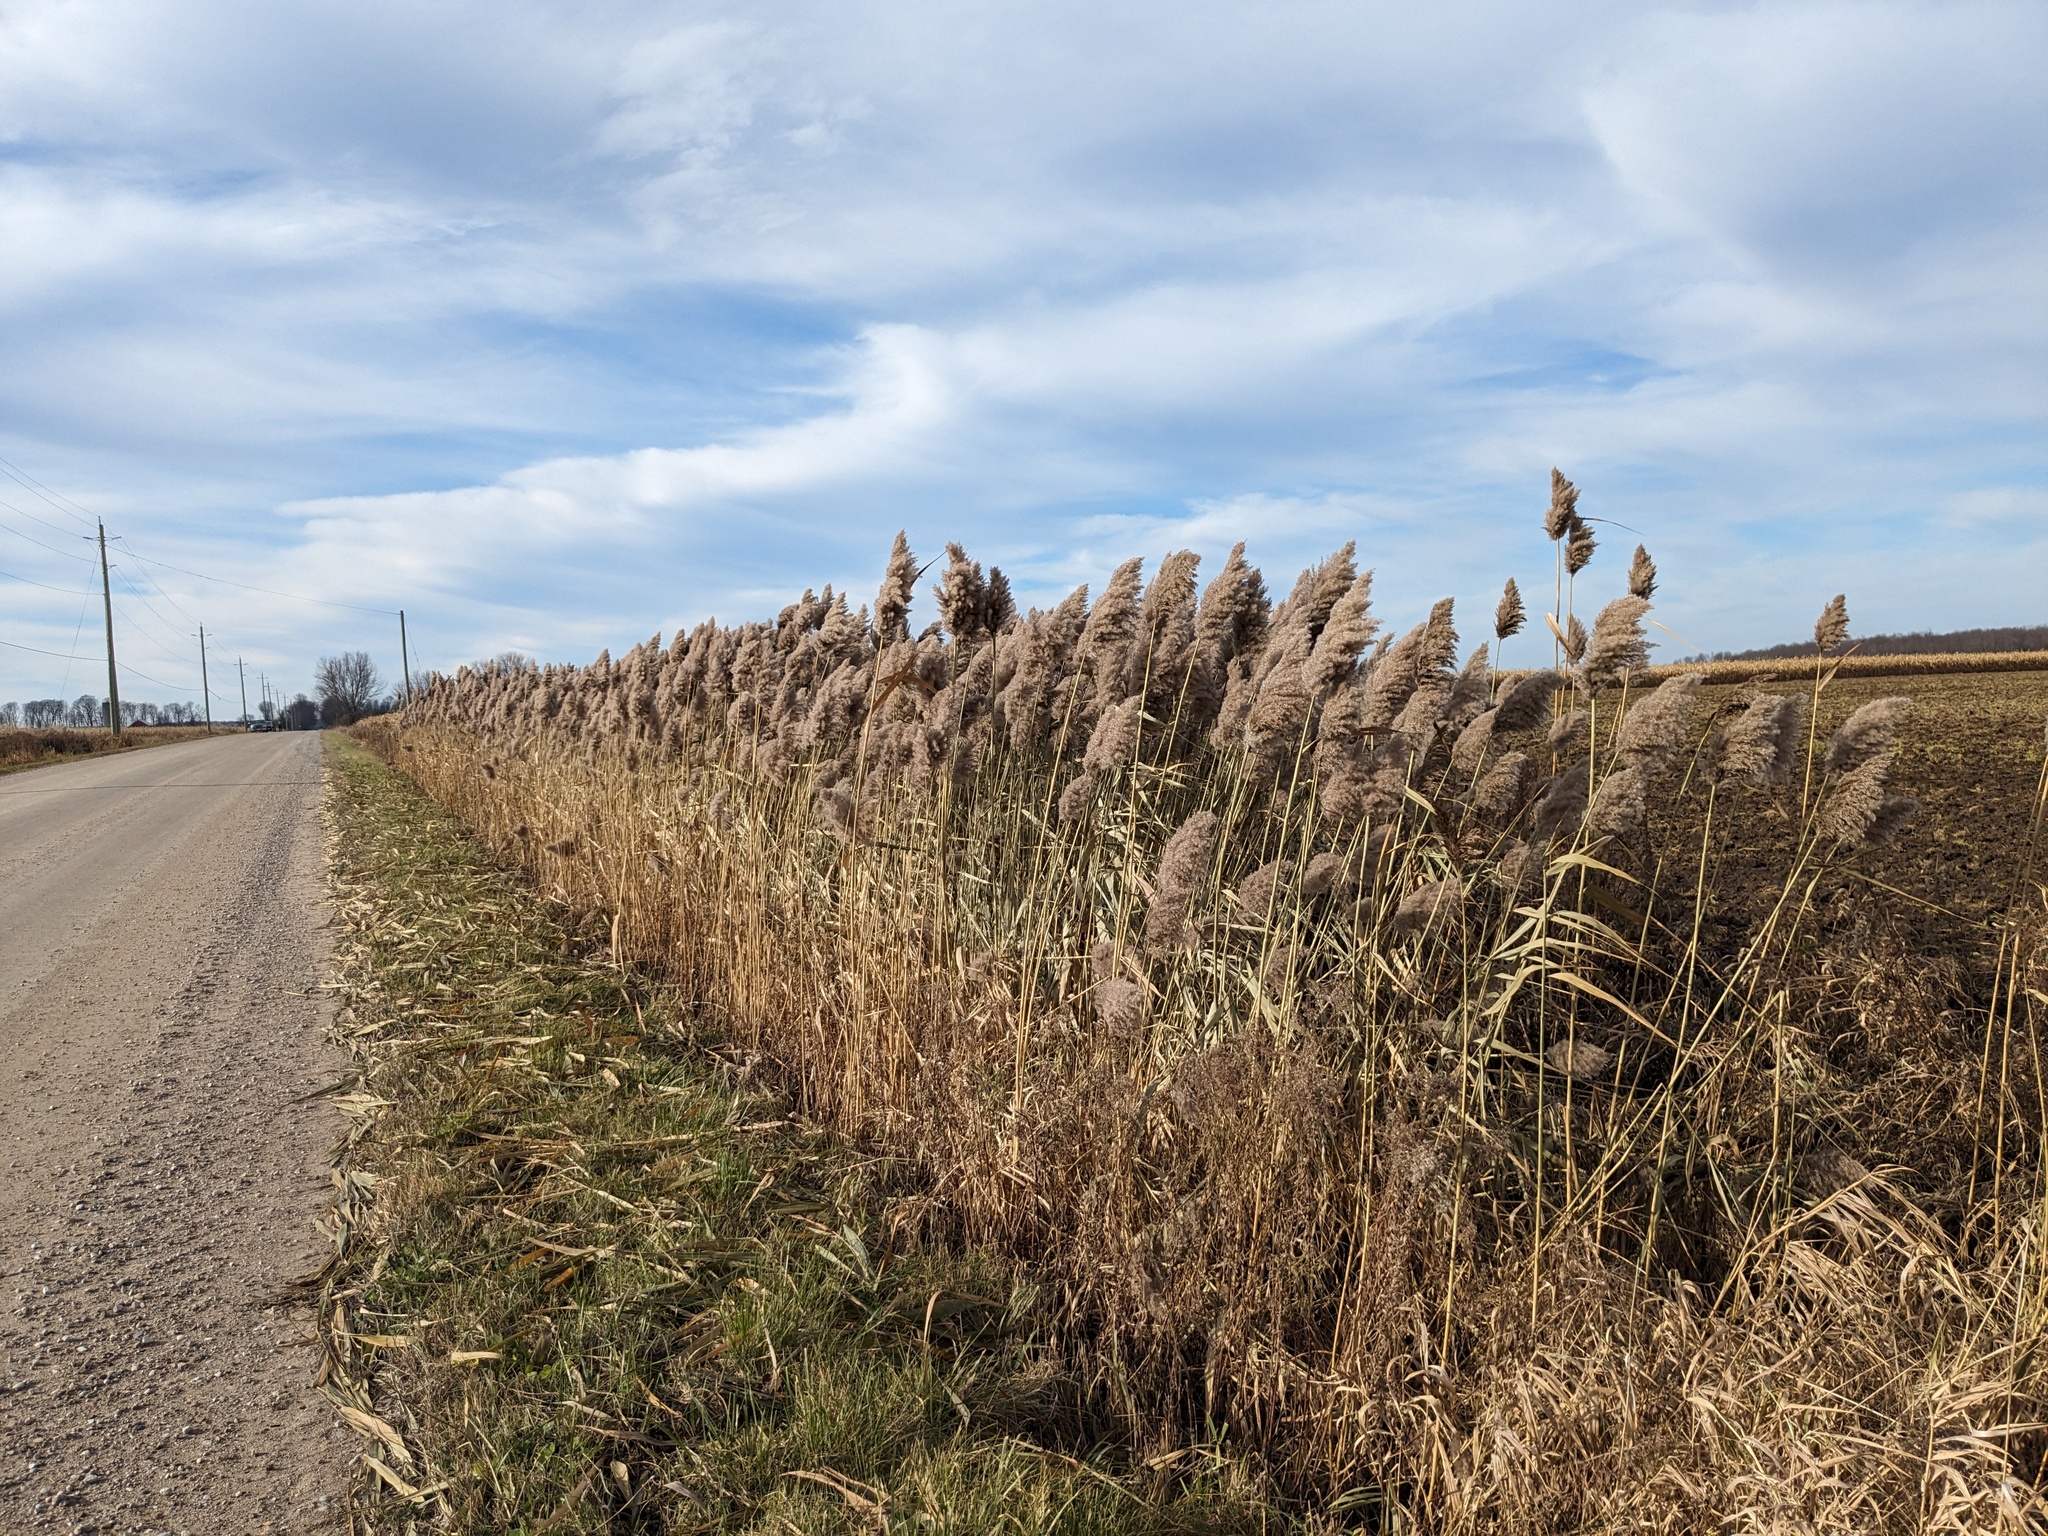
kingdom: Plantae
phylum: Tracheophyta
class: Liliopsida
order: Poales
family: Poaceae
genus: Phragmites
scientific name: Phragmites australis
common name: Common reed
